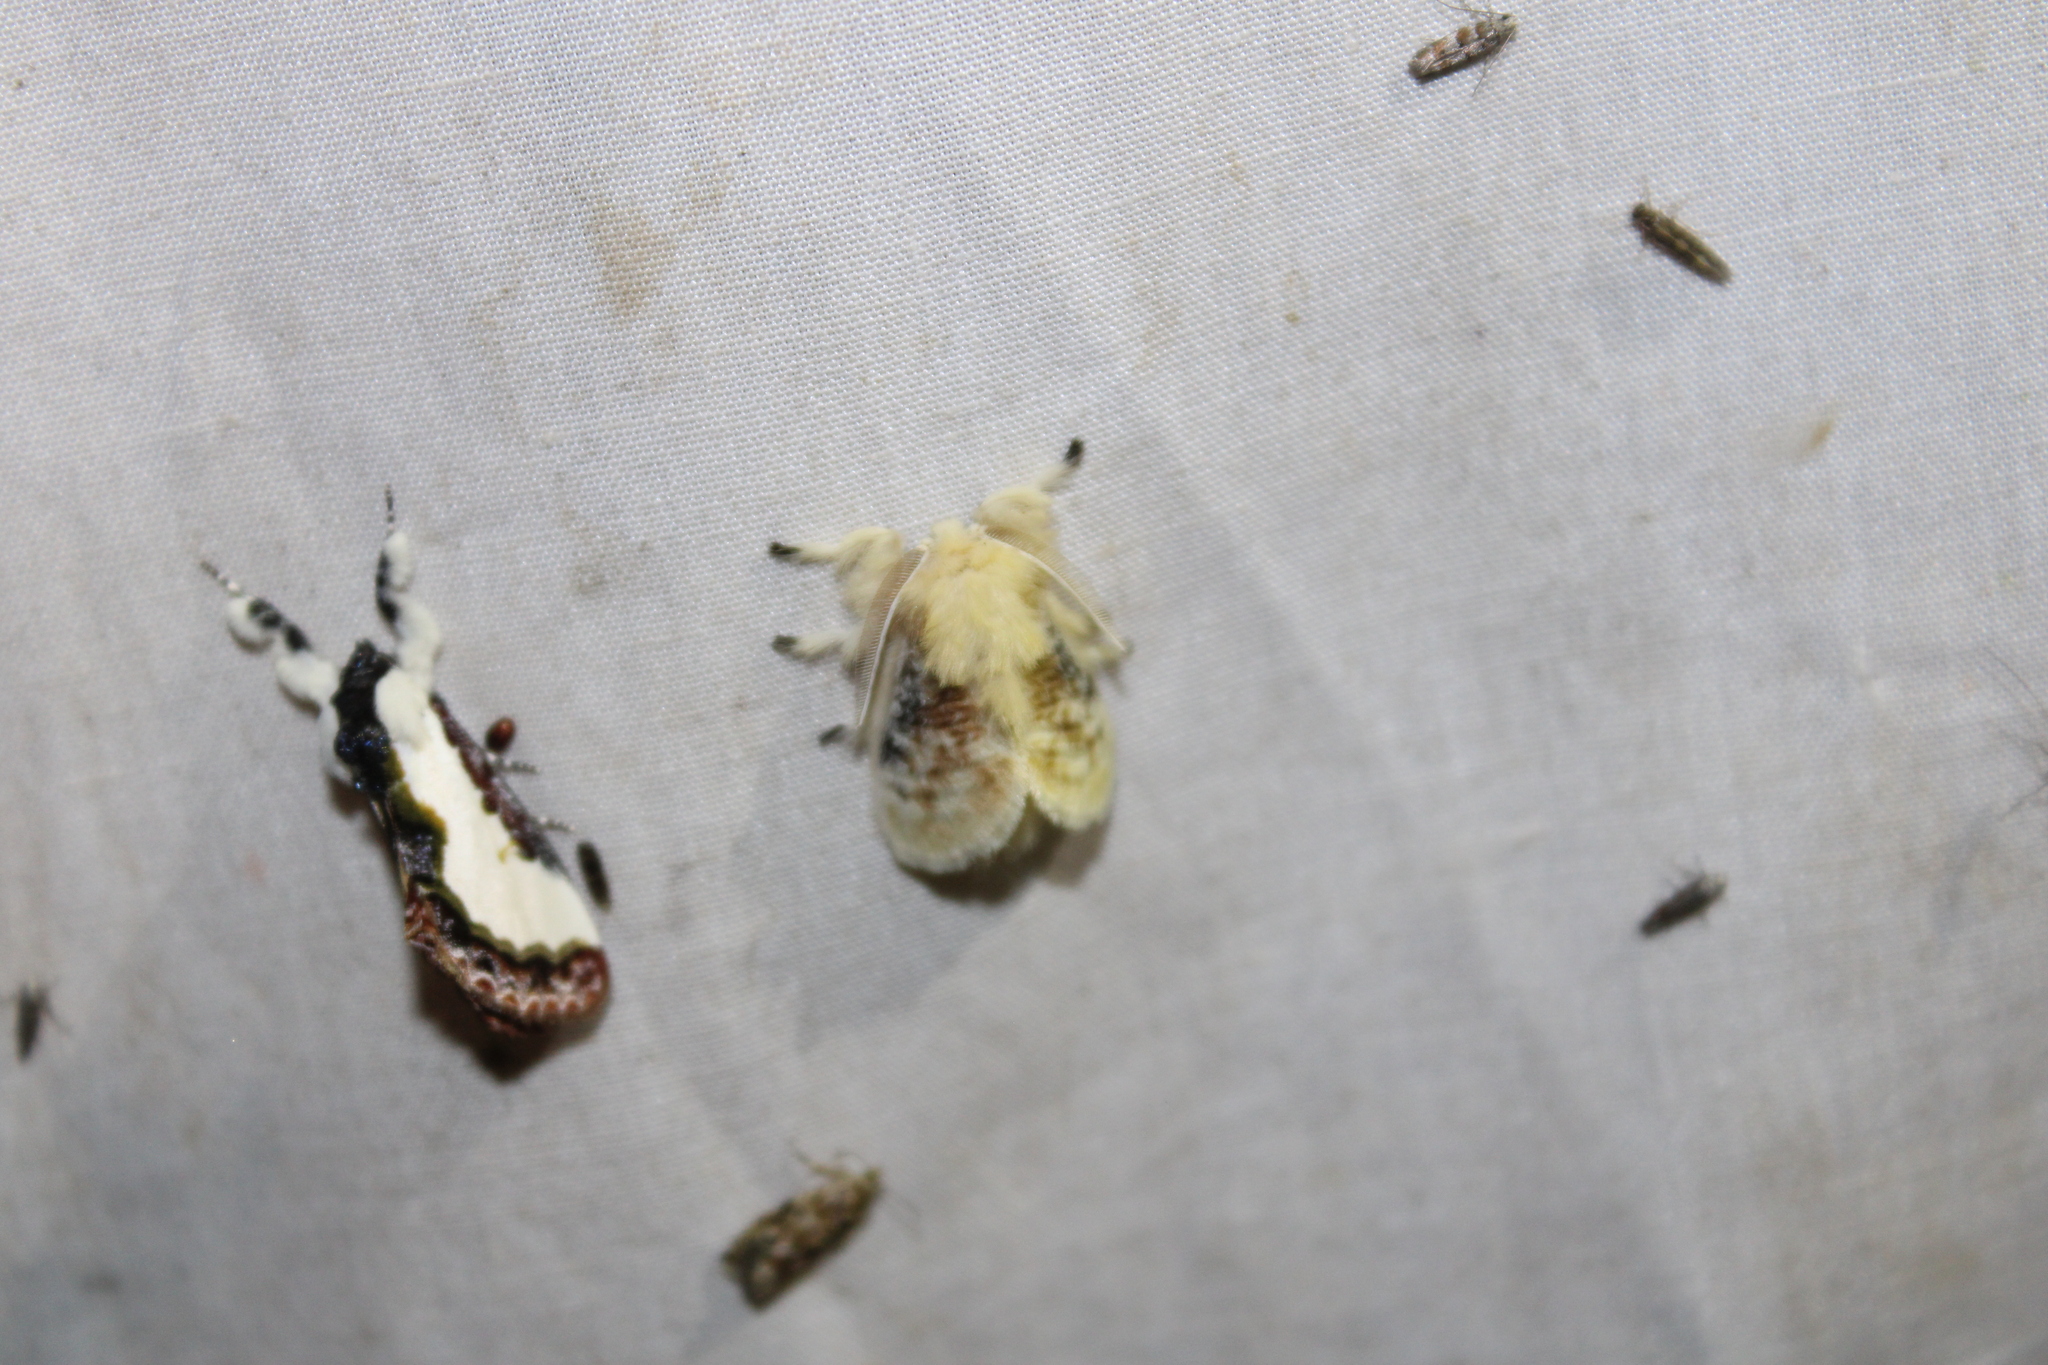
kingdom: Animalia
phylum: Arthropoda
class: Insecta
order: Lepidoptera
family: Megalopygidae
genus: Megalopyge
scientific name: Megalopyge crispata
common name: Black-waved flannel moth
